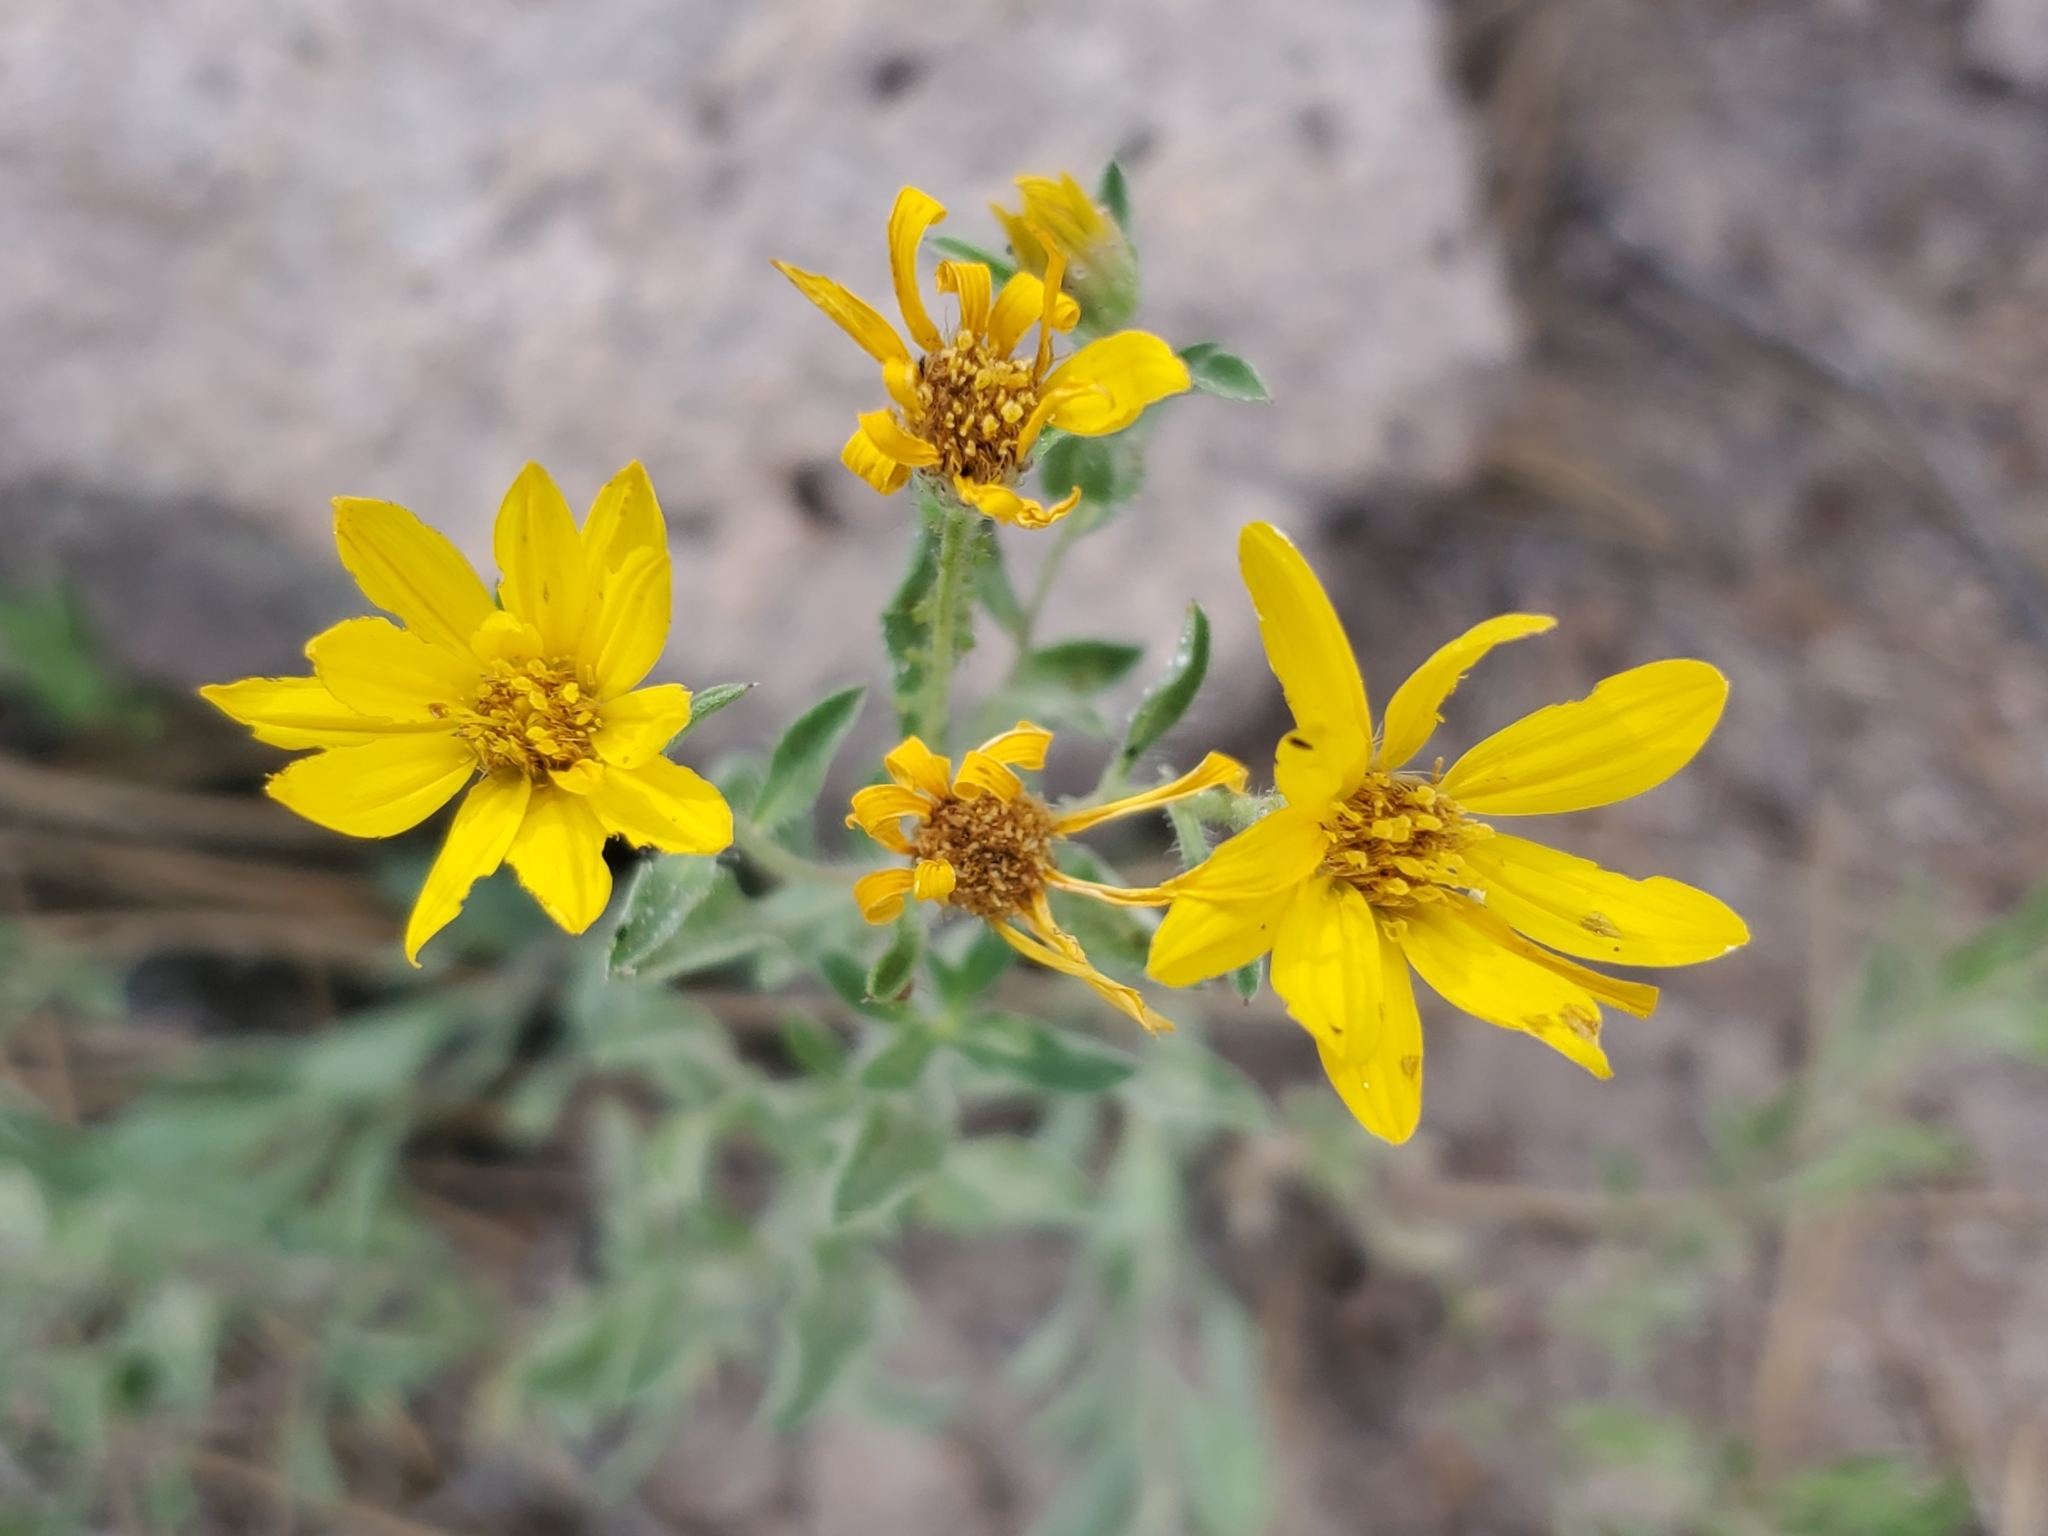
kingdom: Plantae
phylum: Tracheophyta
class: Magnoliopsida
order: Asterales
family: Asteraceae
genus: Heterotheca
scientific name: Heterotheca hirsutissima
